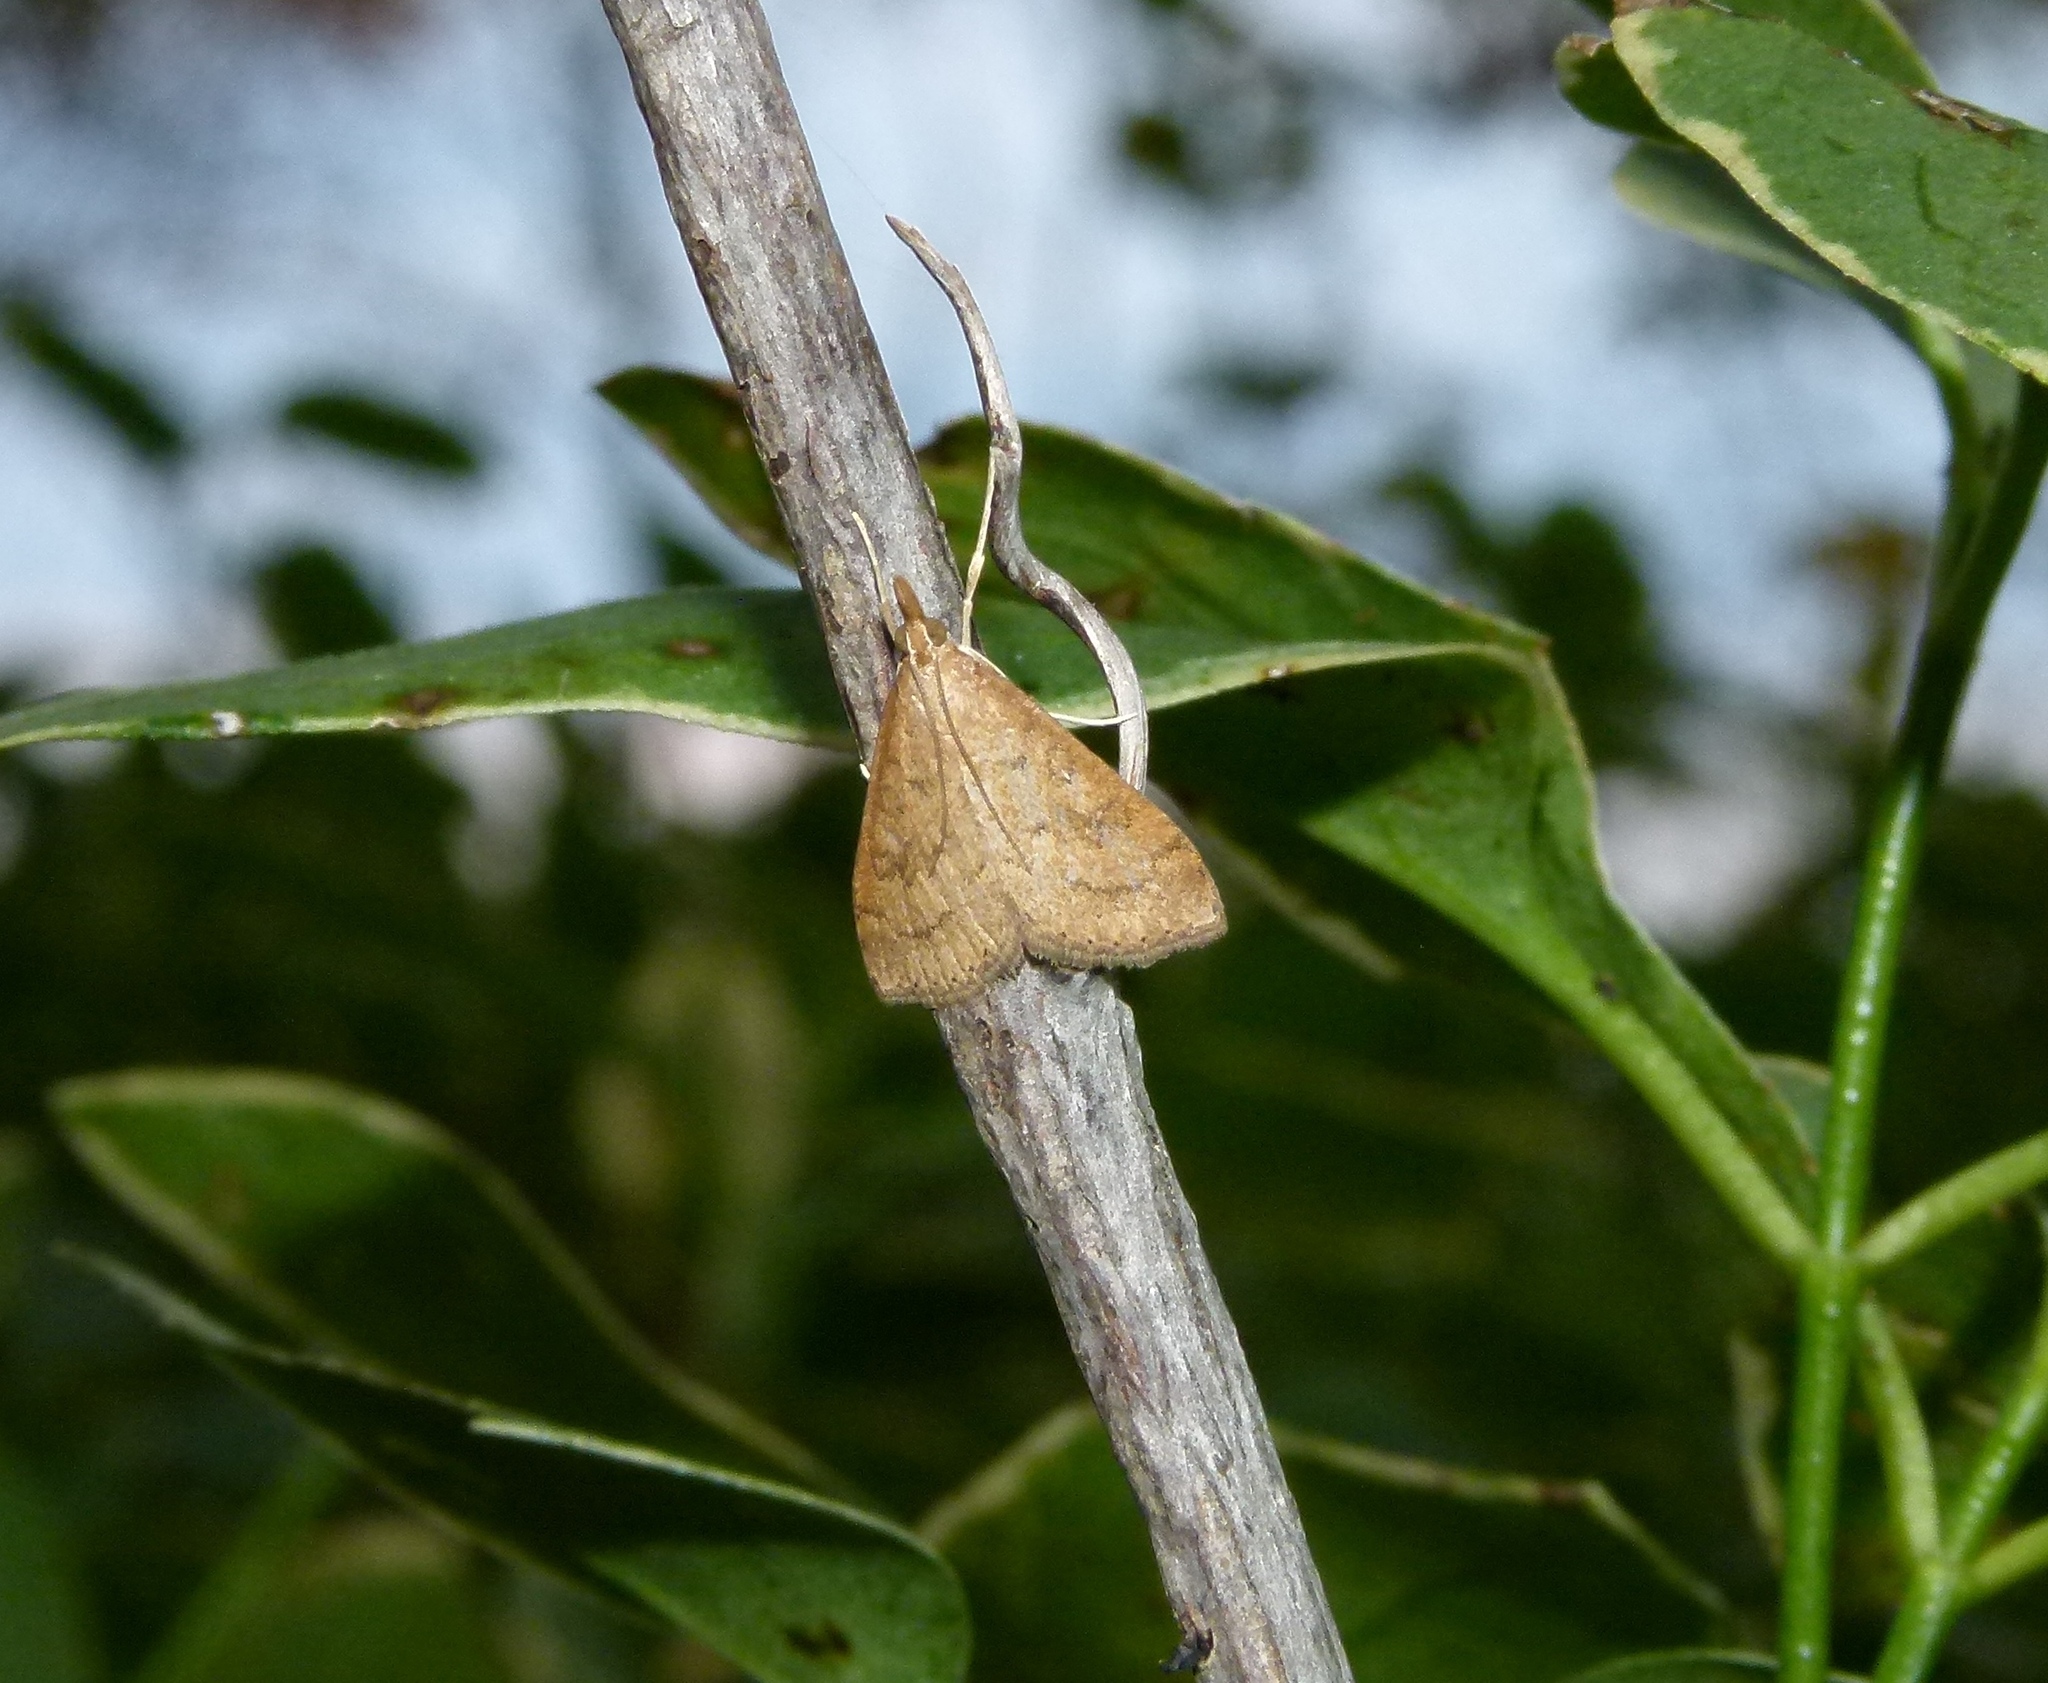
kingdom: Animalia
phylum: Arthropoda
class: Insecta
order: Lepidoptera
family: Crambidae
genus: Udea
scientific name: Udea rubigalis
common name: Celery leaftier moth
